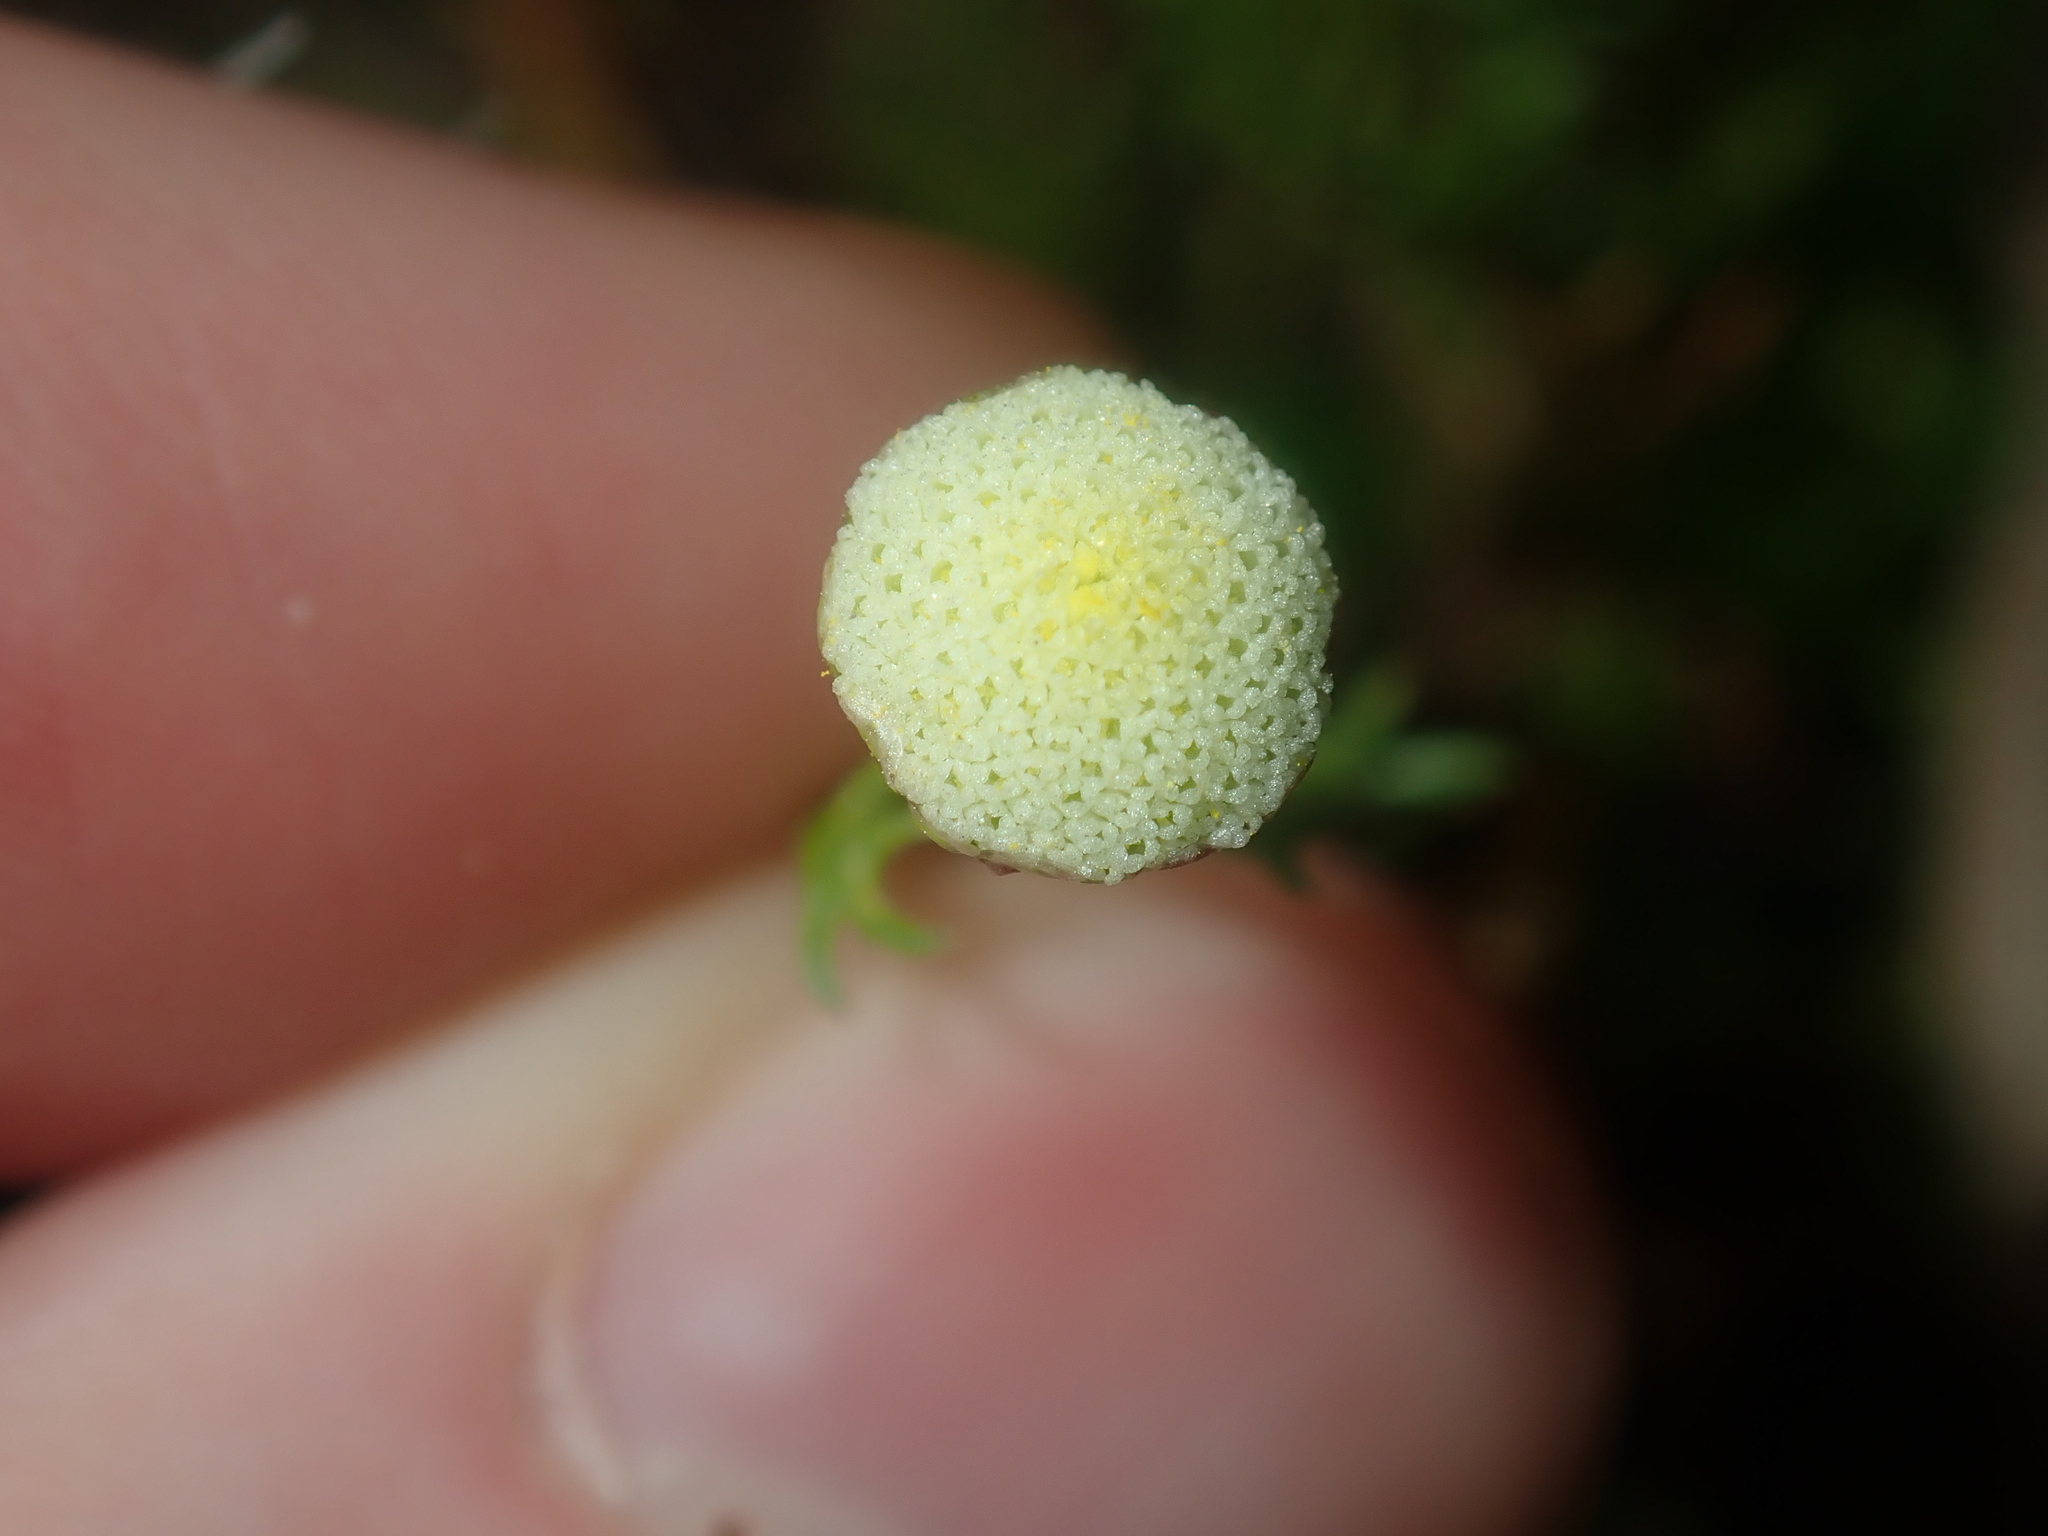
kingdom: Plantae
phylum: Tracheophyta
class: Magnoliopsida
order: Asterales
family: Asteraceae
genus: Cotula
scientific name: Cotula bipinnata
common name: Ferny buttonweed
